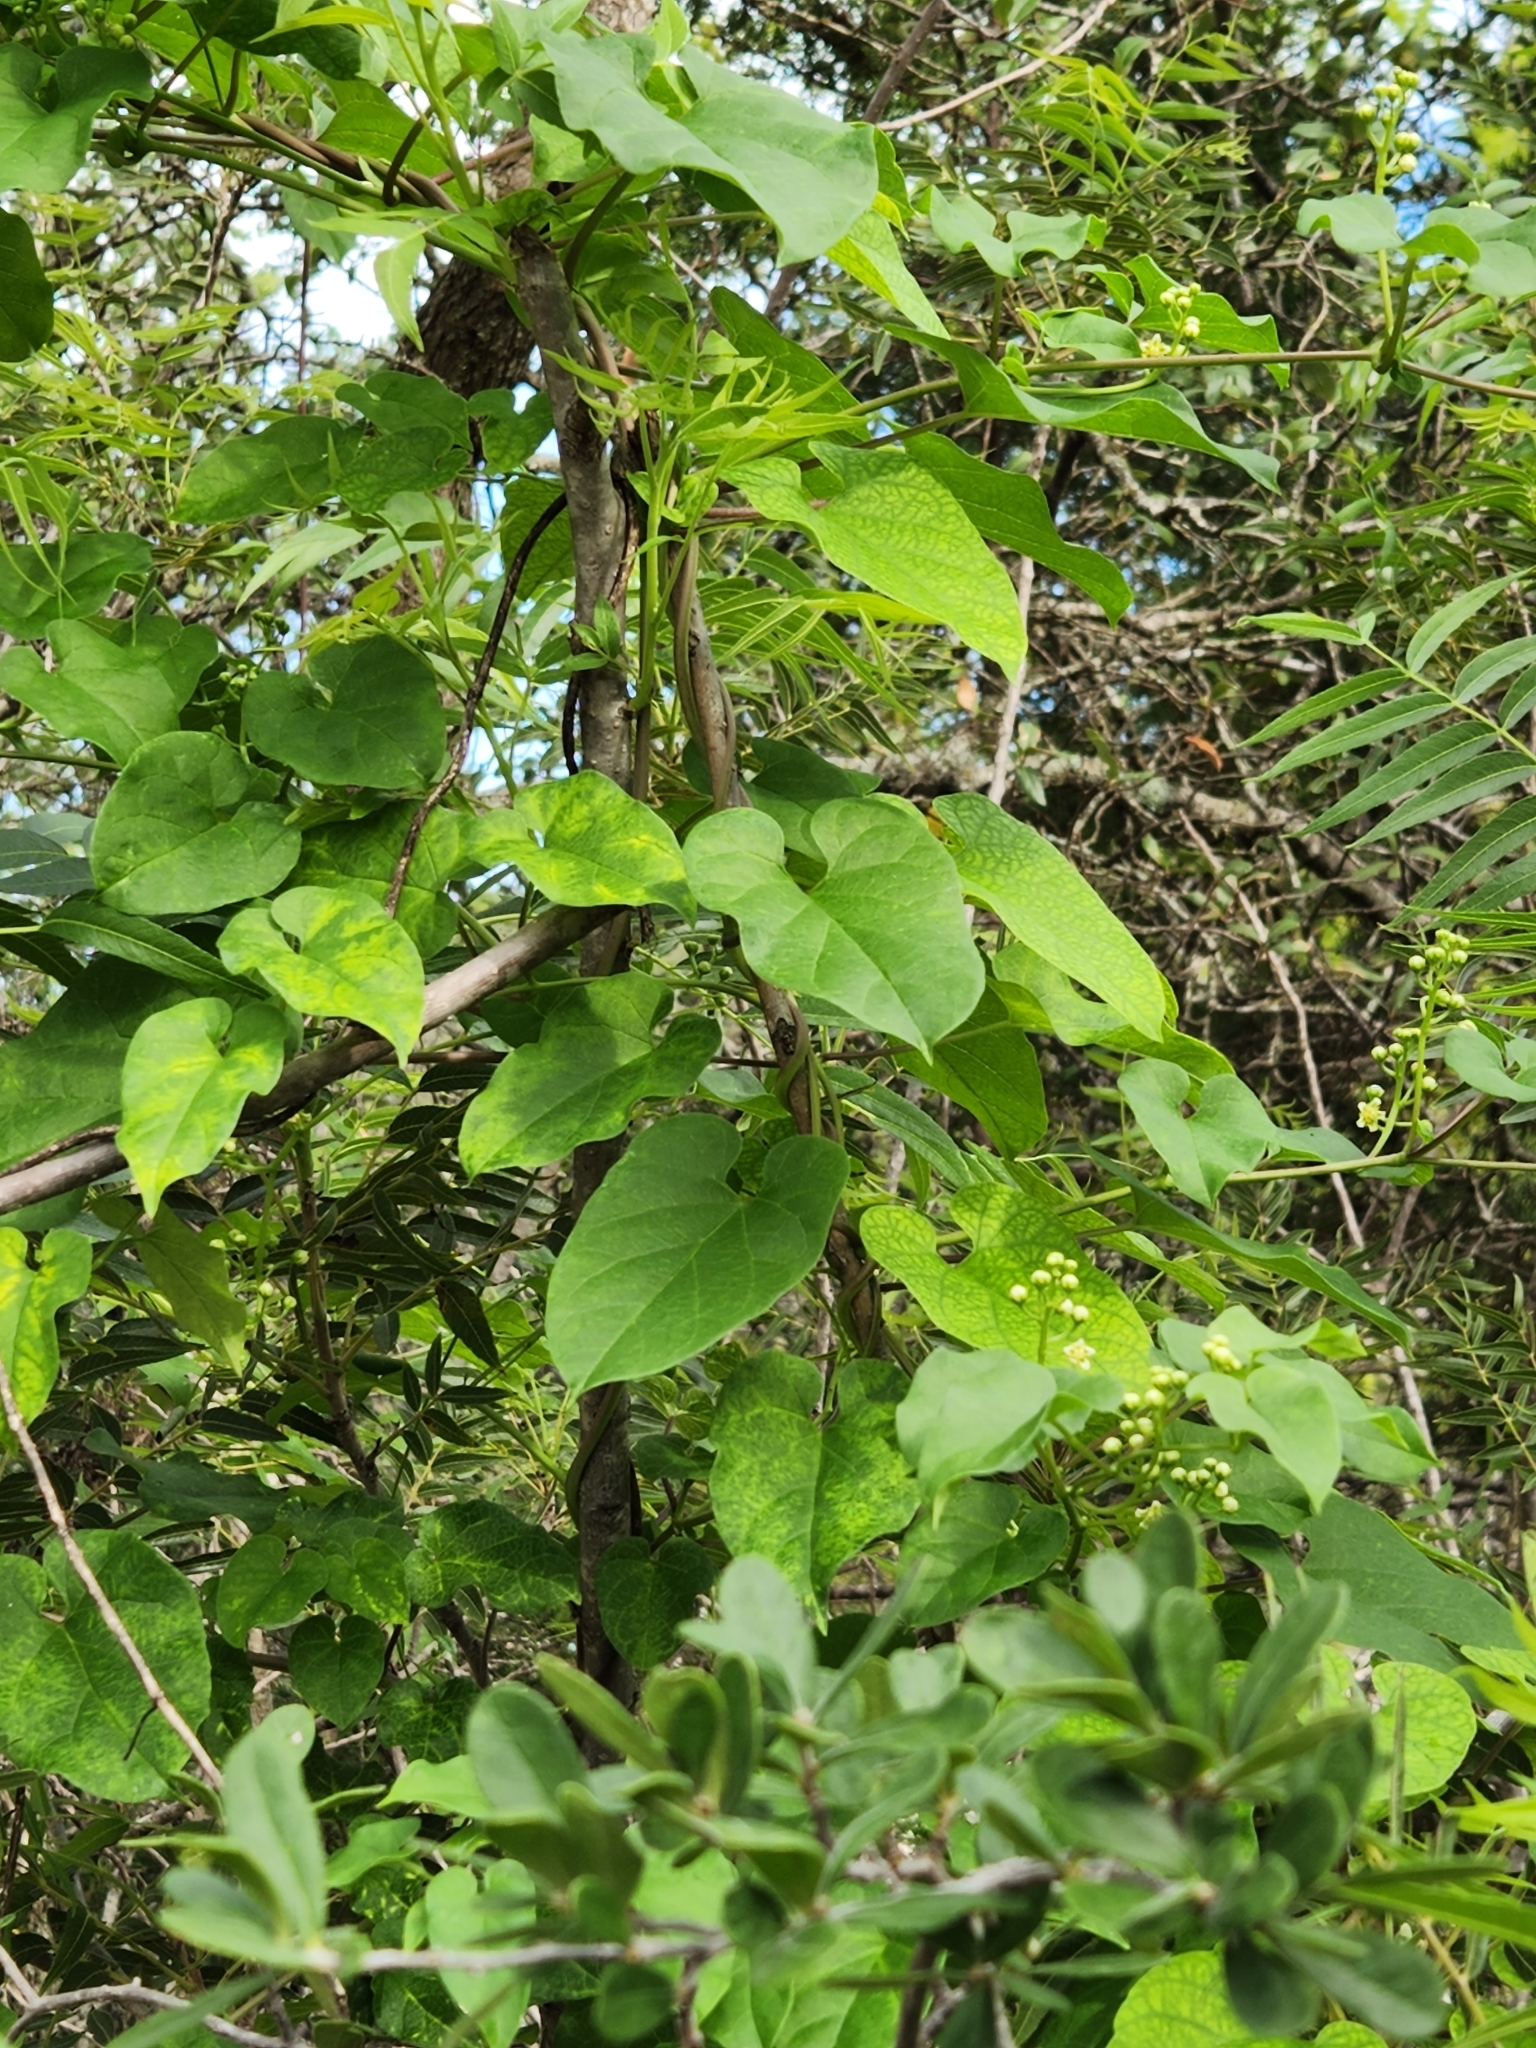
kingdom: Plantae
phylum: Tracheophyta
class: Magnoliopsida
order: Gentianales
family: Apocynaceae
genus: Cynanchum
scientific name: Cynanchum racemosum
